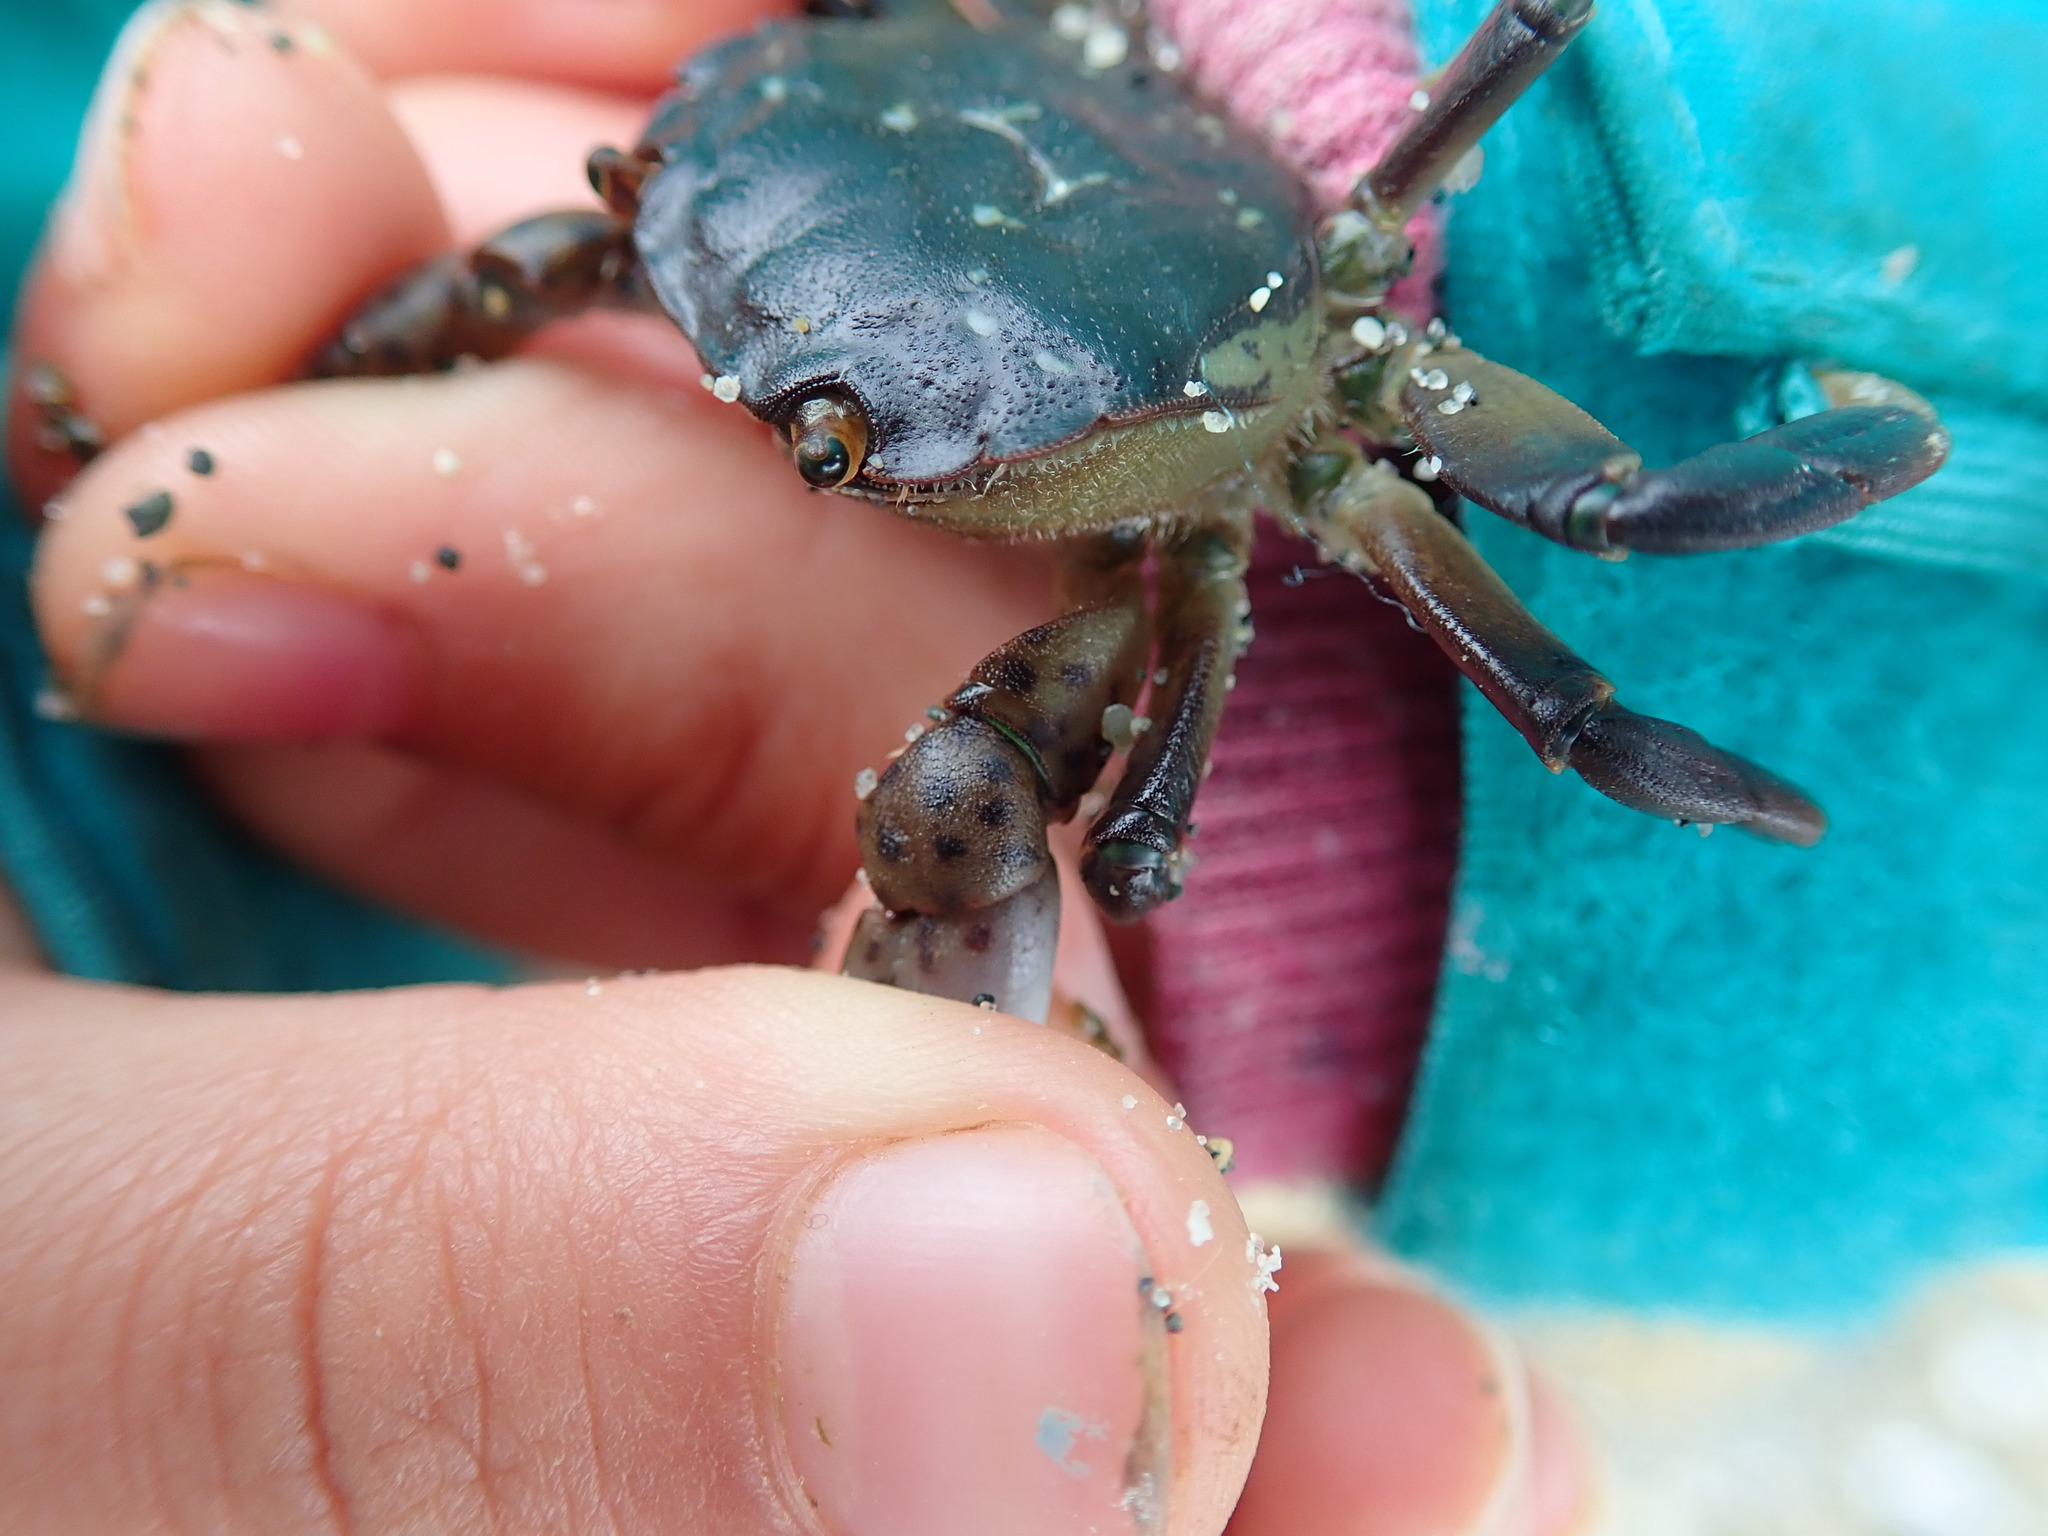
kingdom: Animalia
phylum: Arthropoda
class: Malacostraca
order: Decapoda
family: Varunidae
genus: Hemigrapsus
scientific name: Hemigrapsus nudus
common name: Purple shore crab
